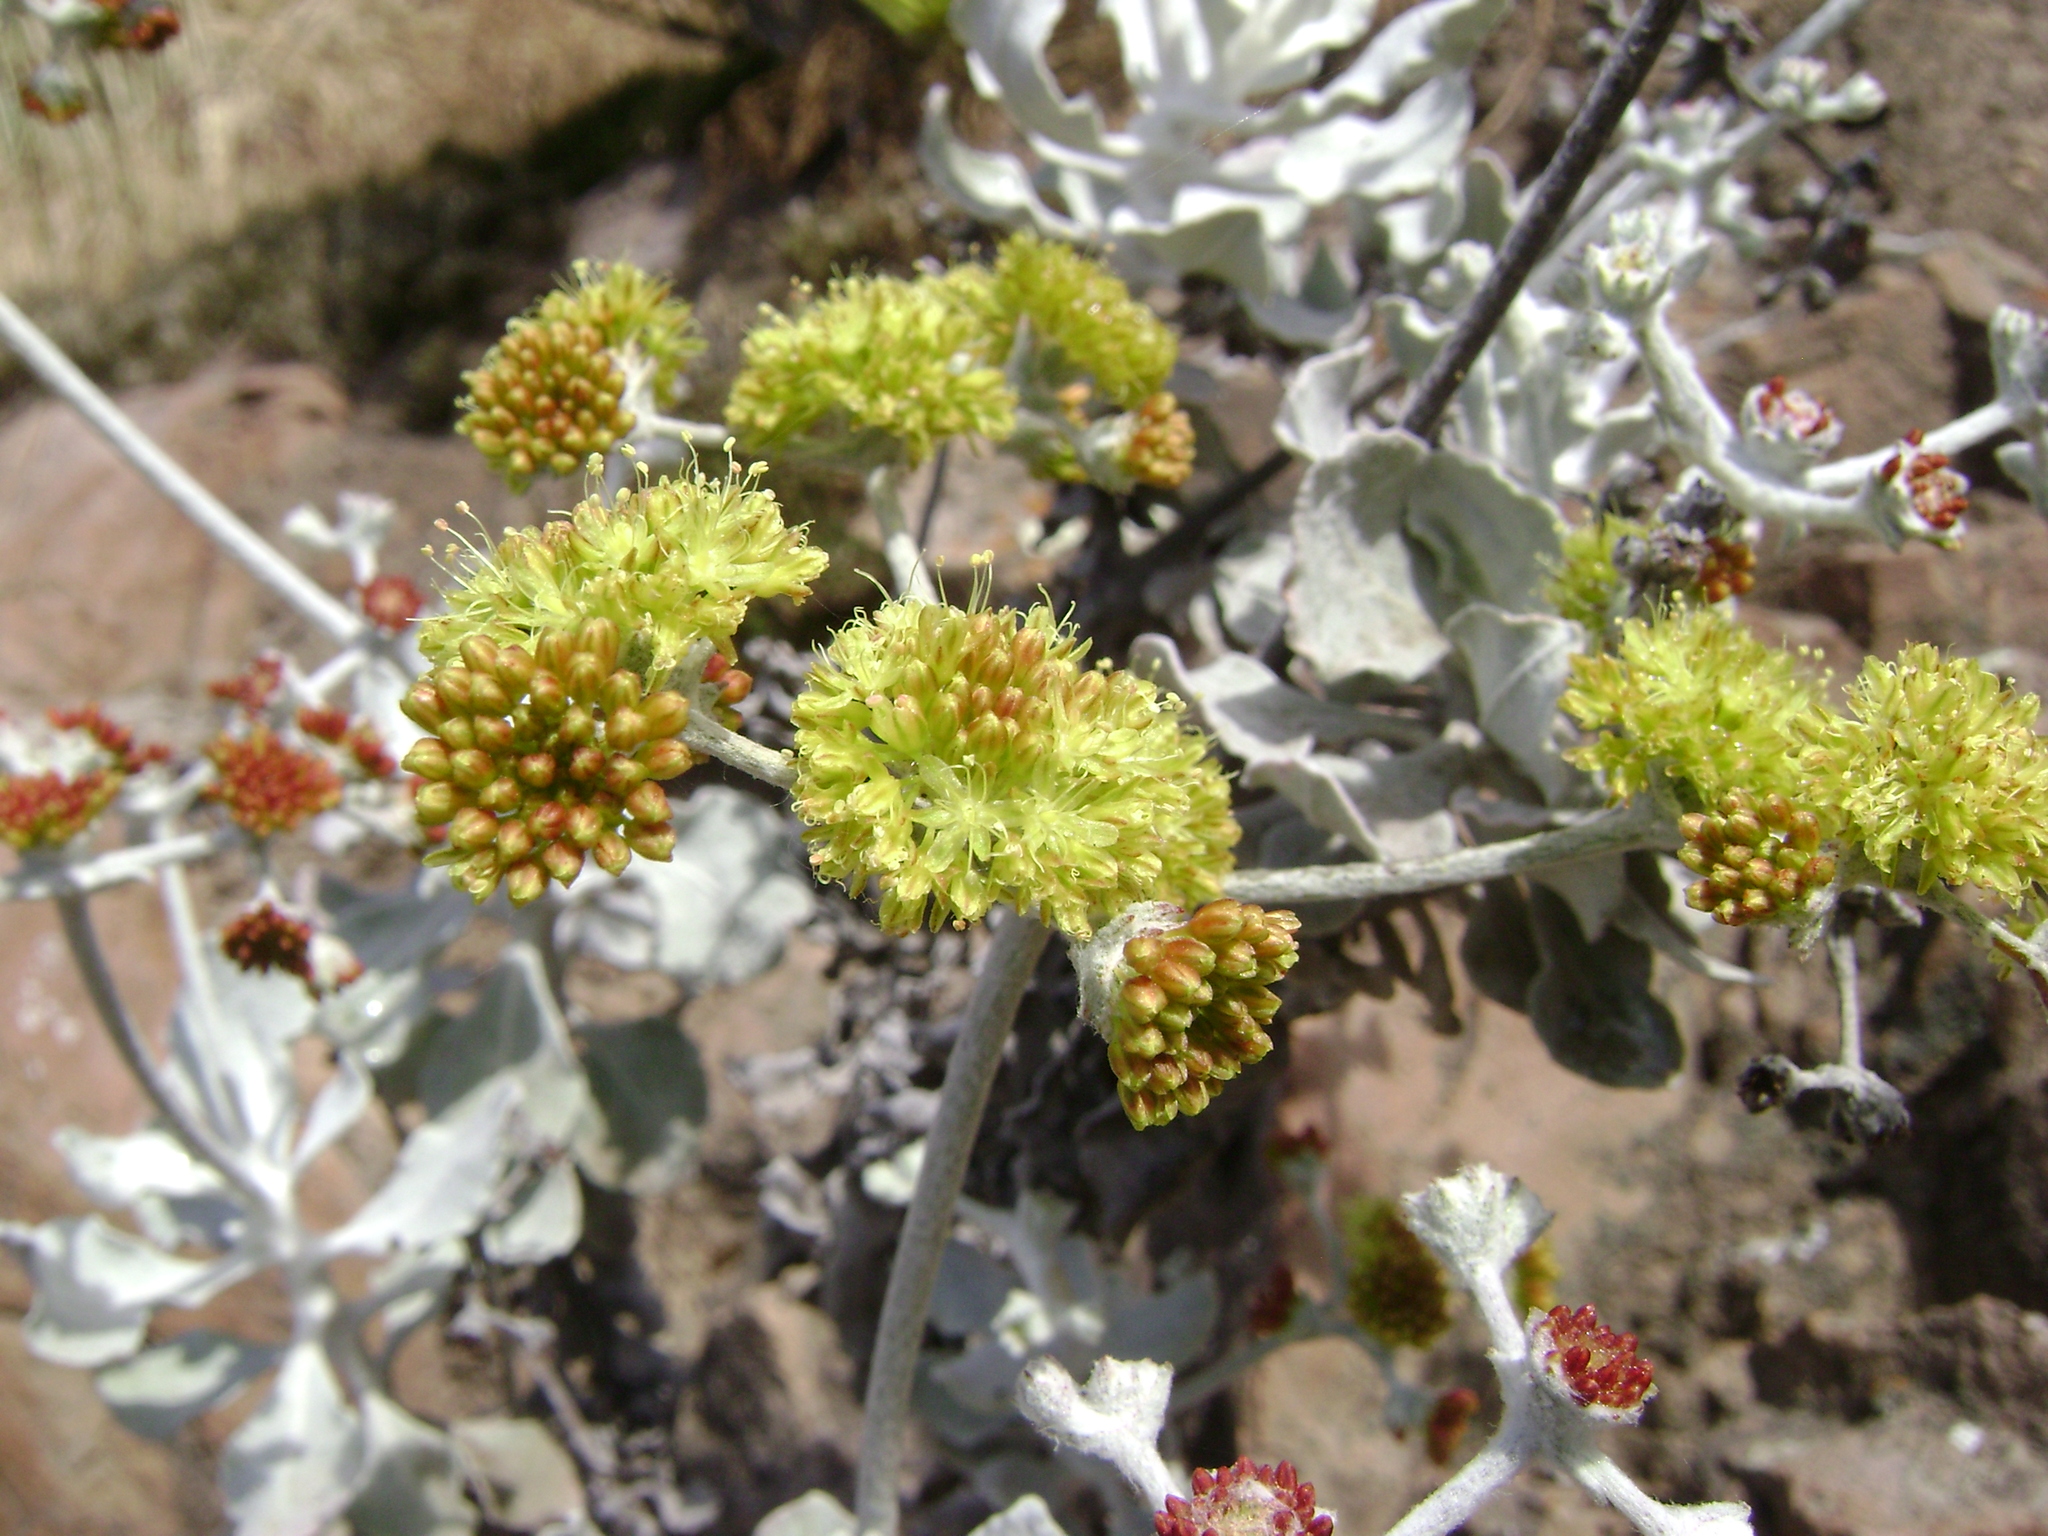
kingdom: Plantae
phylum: Tracheophyta
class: Magnoliopsida
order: Caryophyllales
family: Polygonaceae
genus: Eriogonum
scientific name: Eriogonum crocatum
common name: Saffron wild buckwheat
